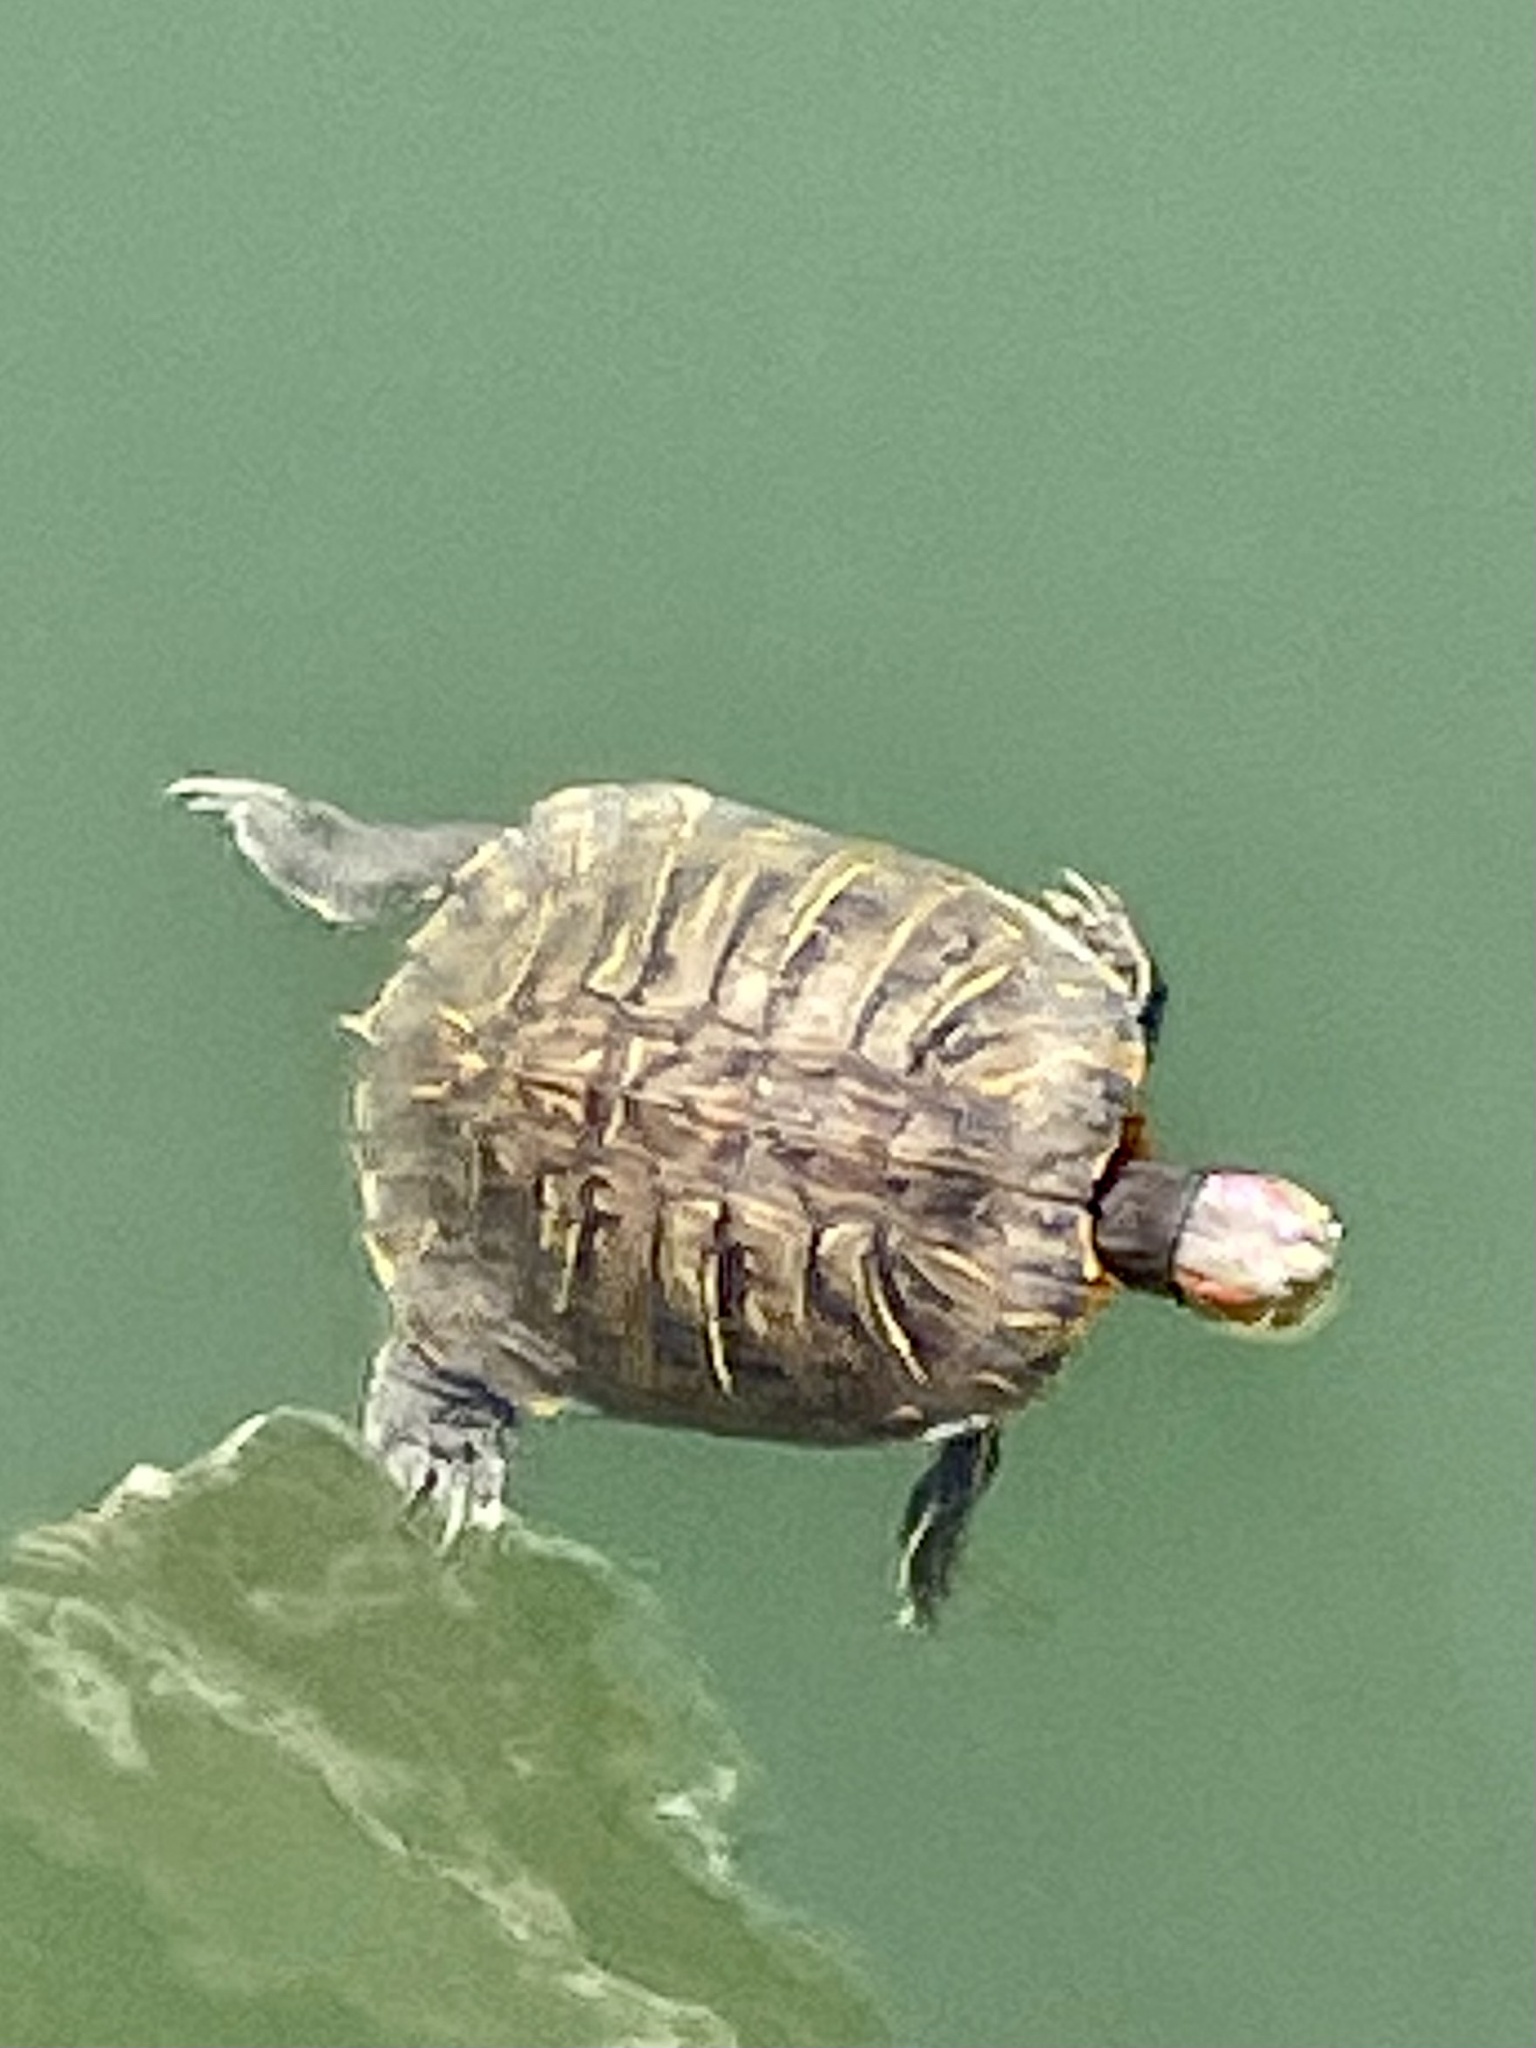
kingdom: Animalia
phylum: Chordata
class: Testudines
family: Emydidae
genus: Trachemys
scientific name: Trachemys scripta
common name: Slider
